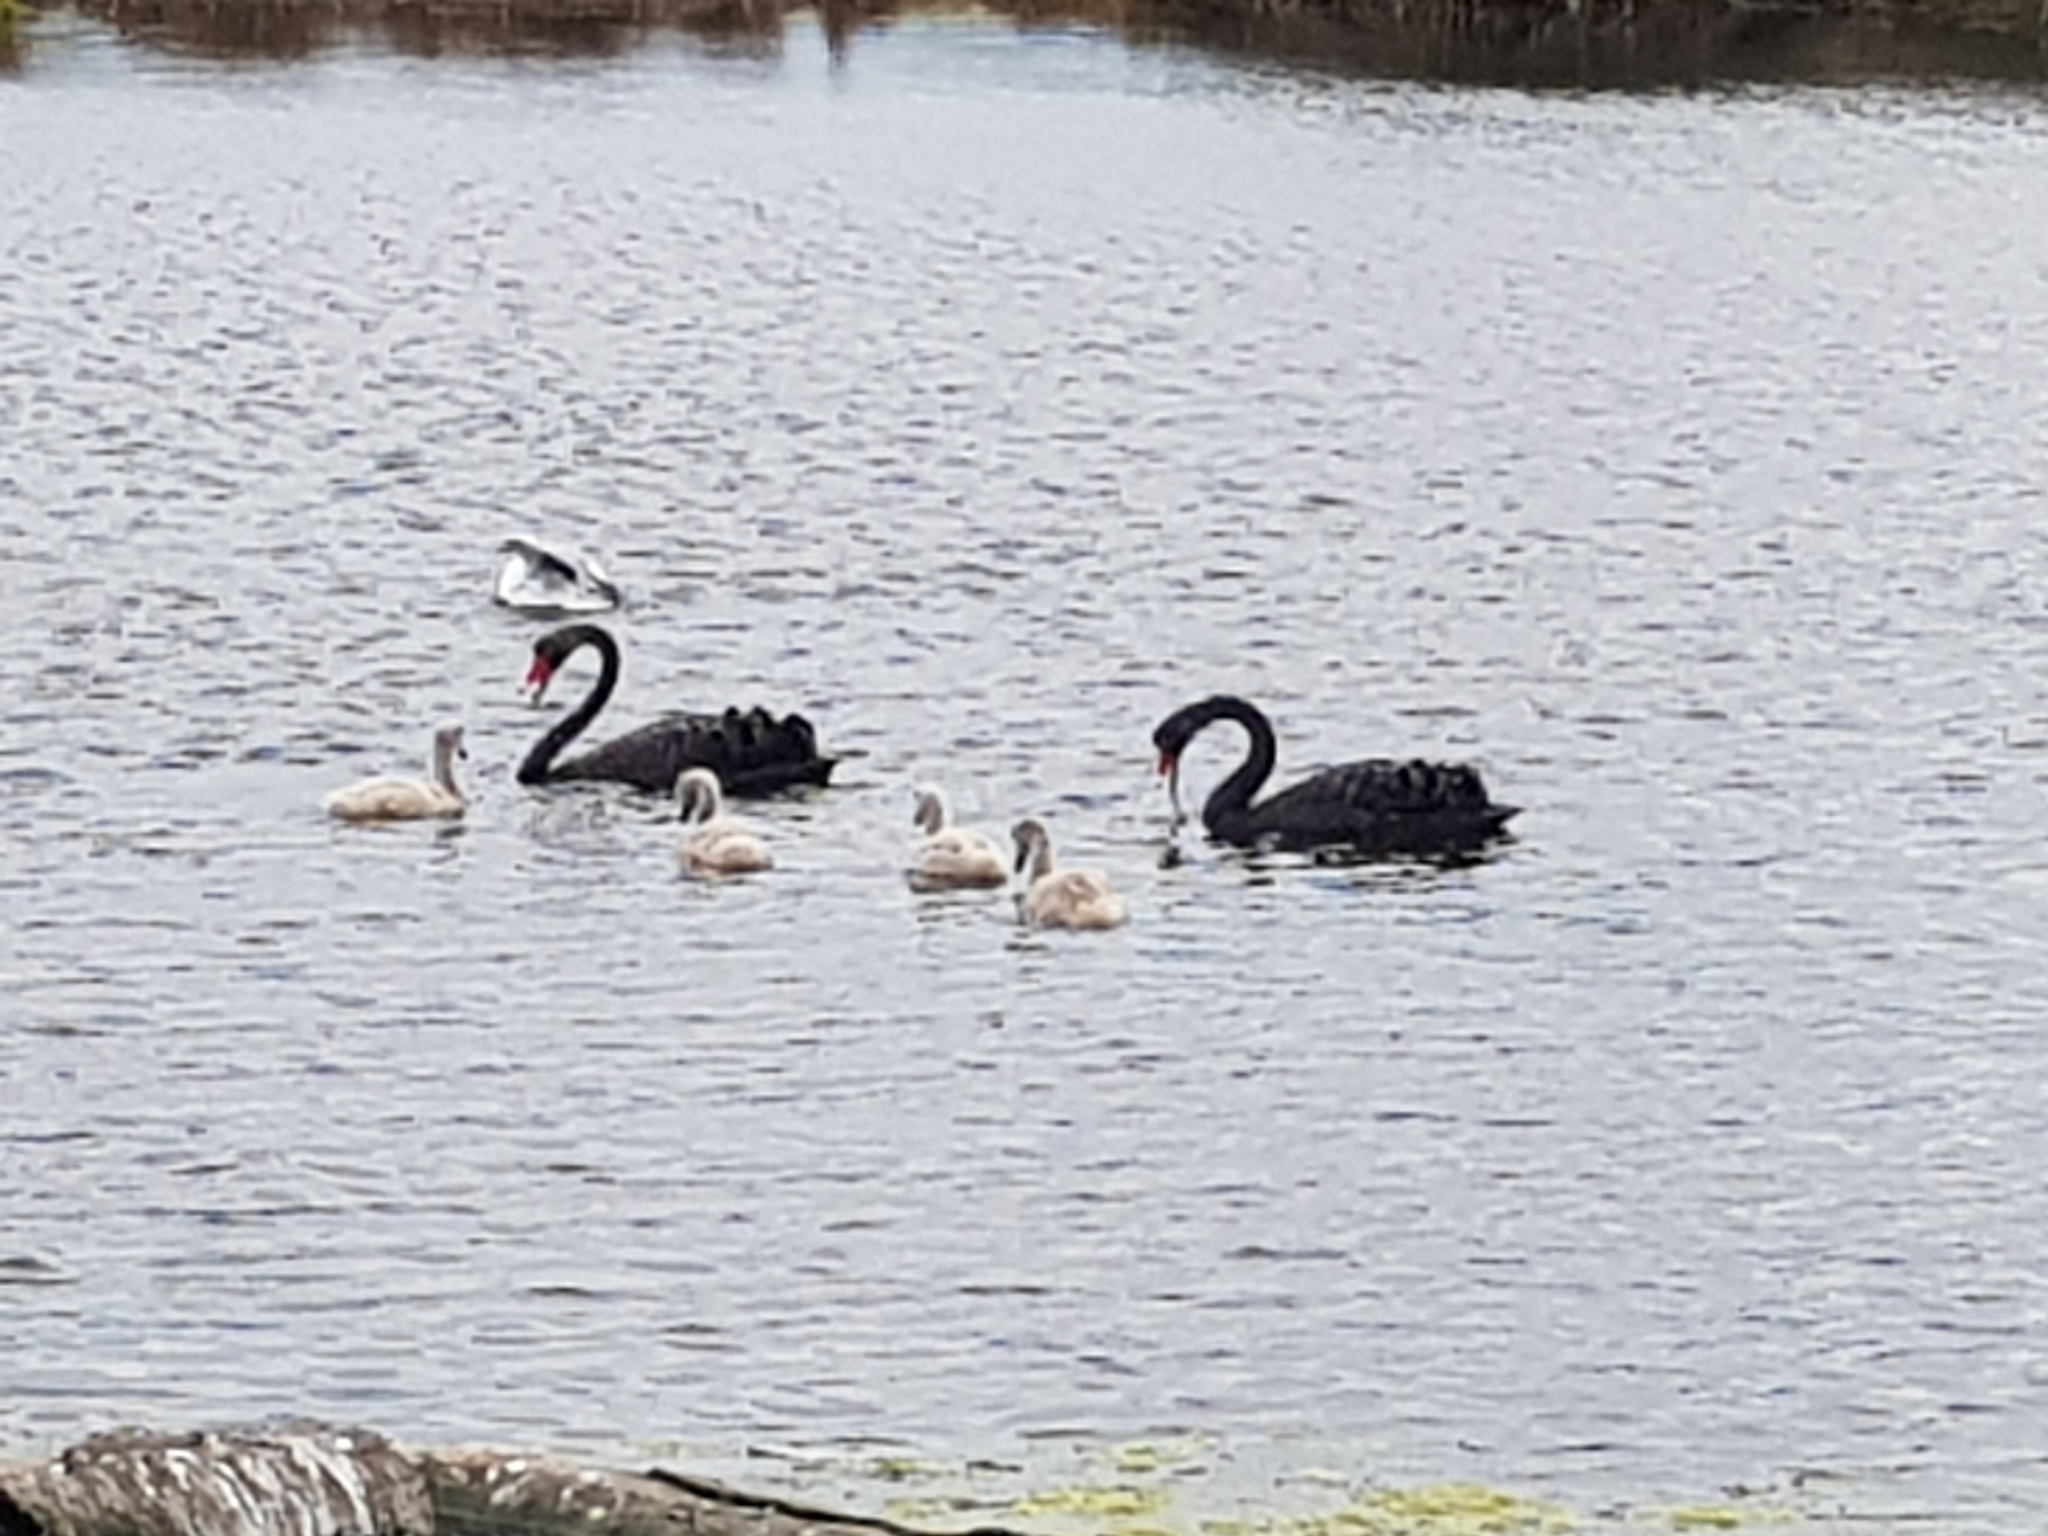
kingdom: Animalia
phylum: Chordata
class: Aves
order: Anseriformes
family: Anatidae
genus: Cygnus
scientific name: Cygnus atratus
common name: Black swan
